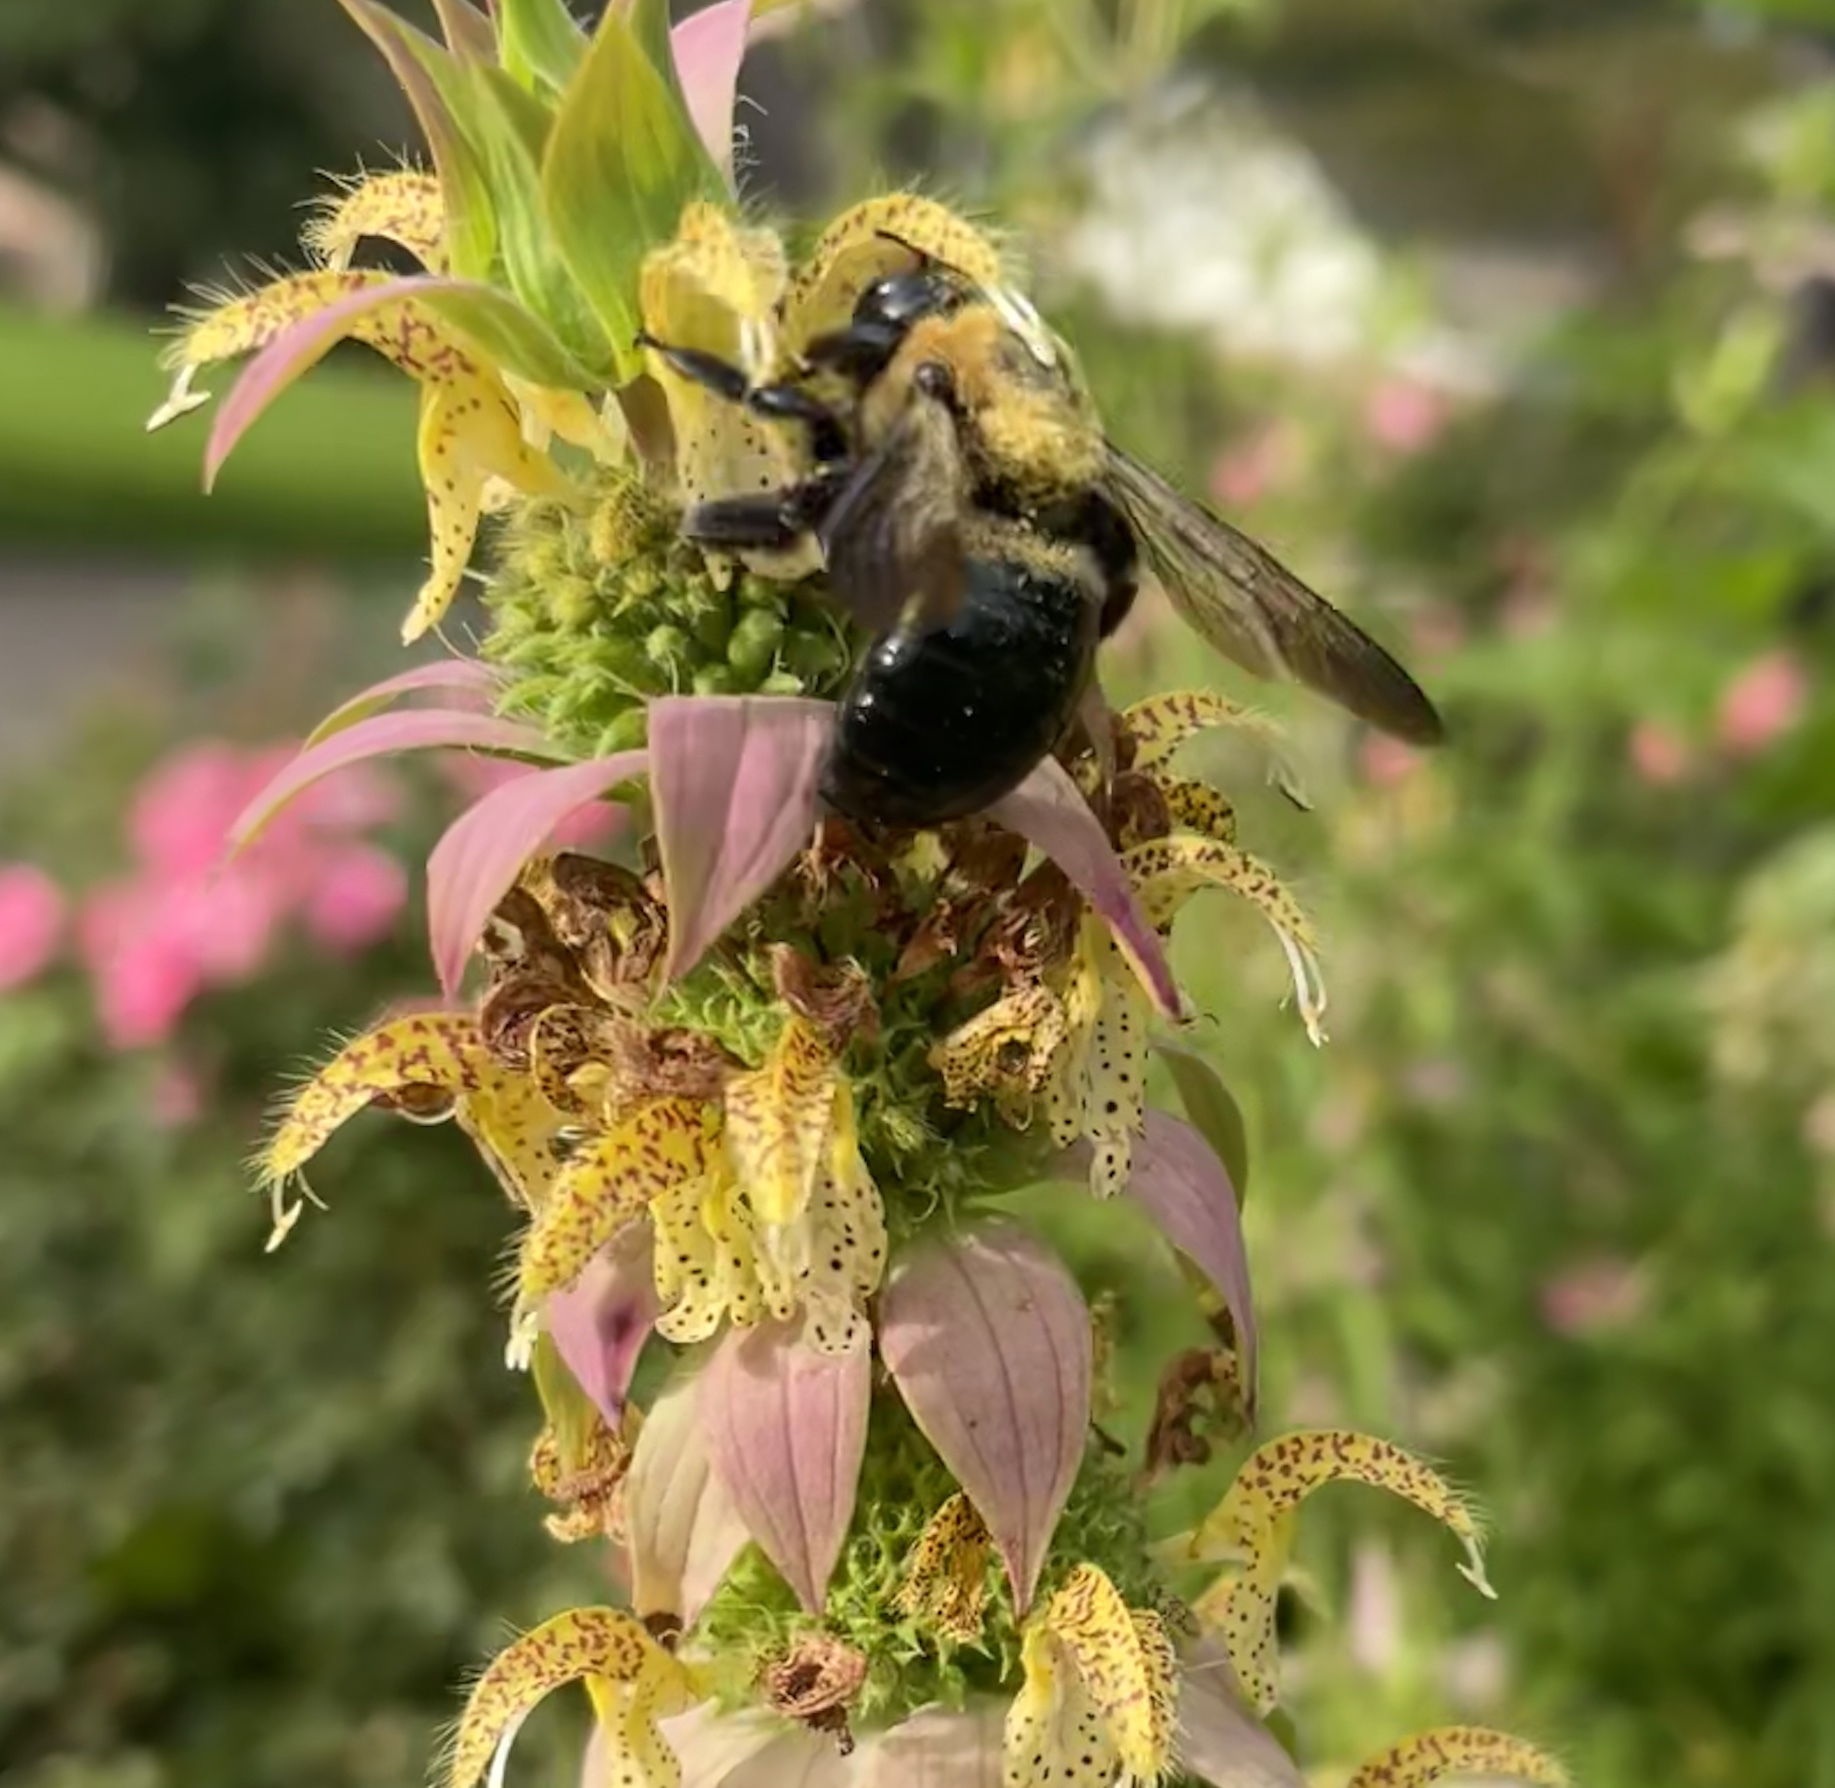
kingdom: Animalia
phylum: Arthropoda
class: Insecta
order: Hymenoptera
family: Apidae
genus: Xylocopa
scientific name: Xylocopa virginica
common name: Carpenter bee
